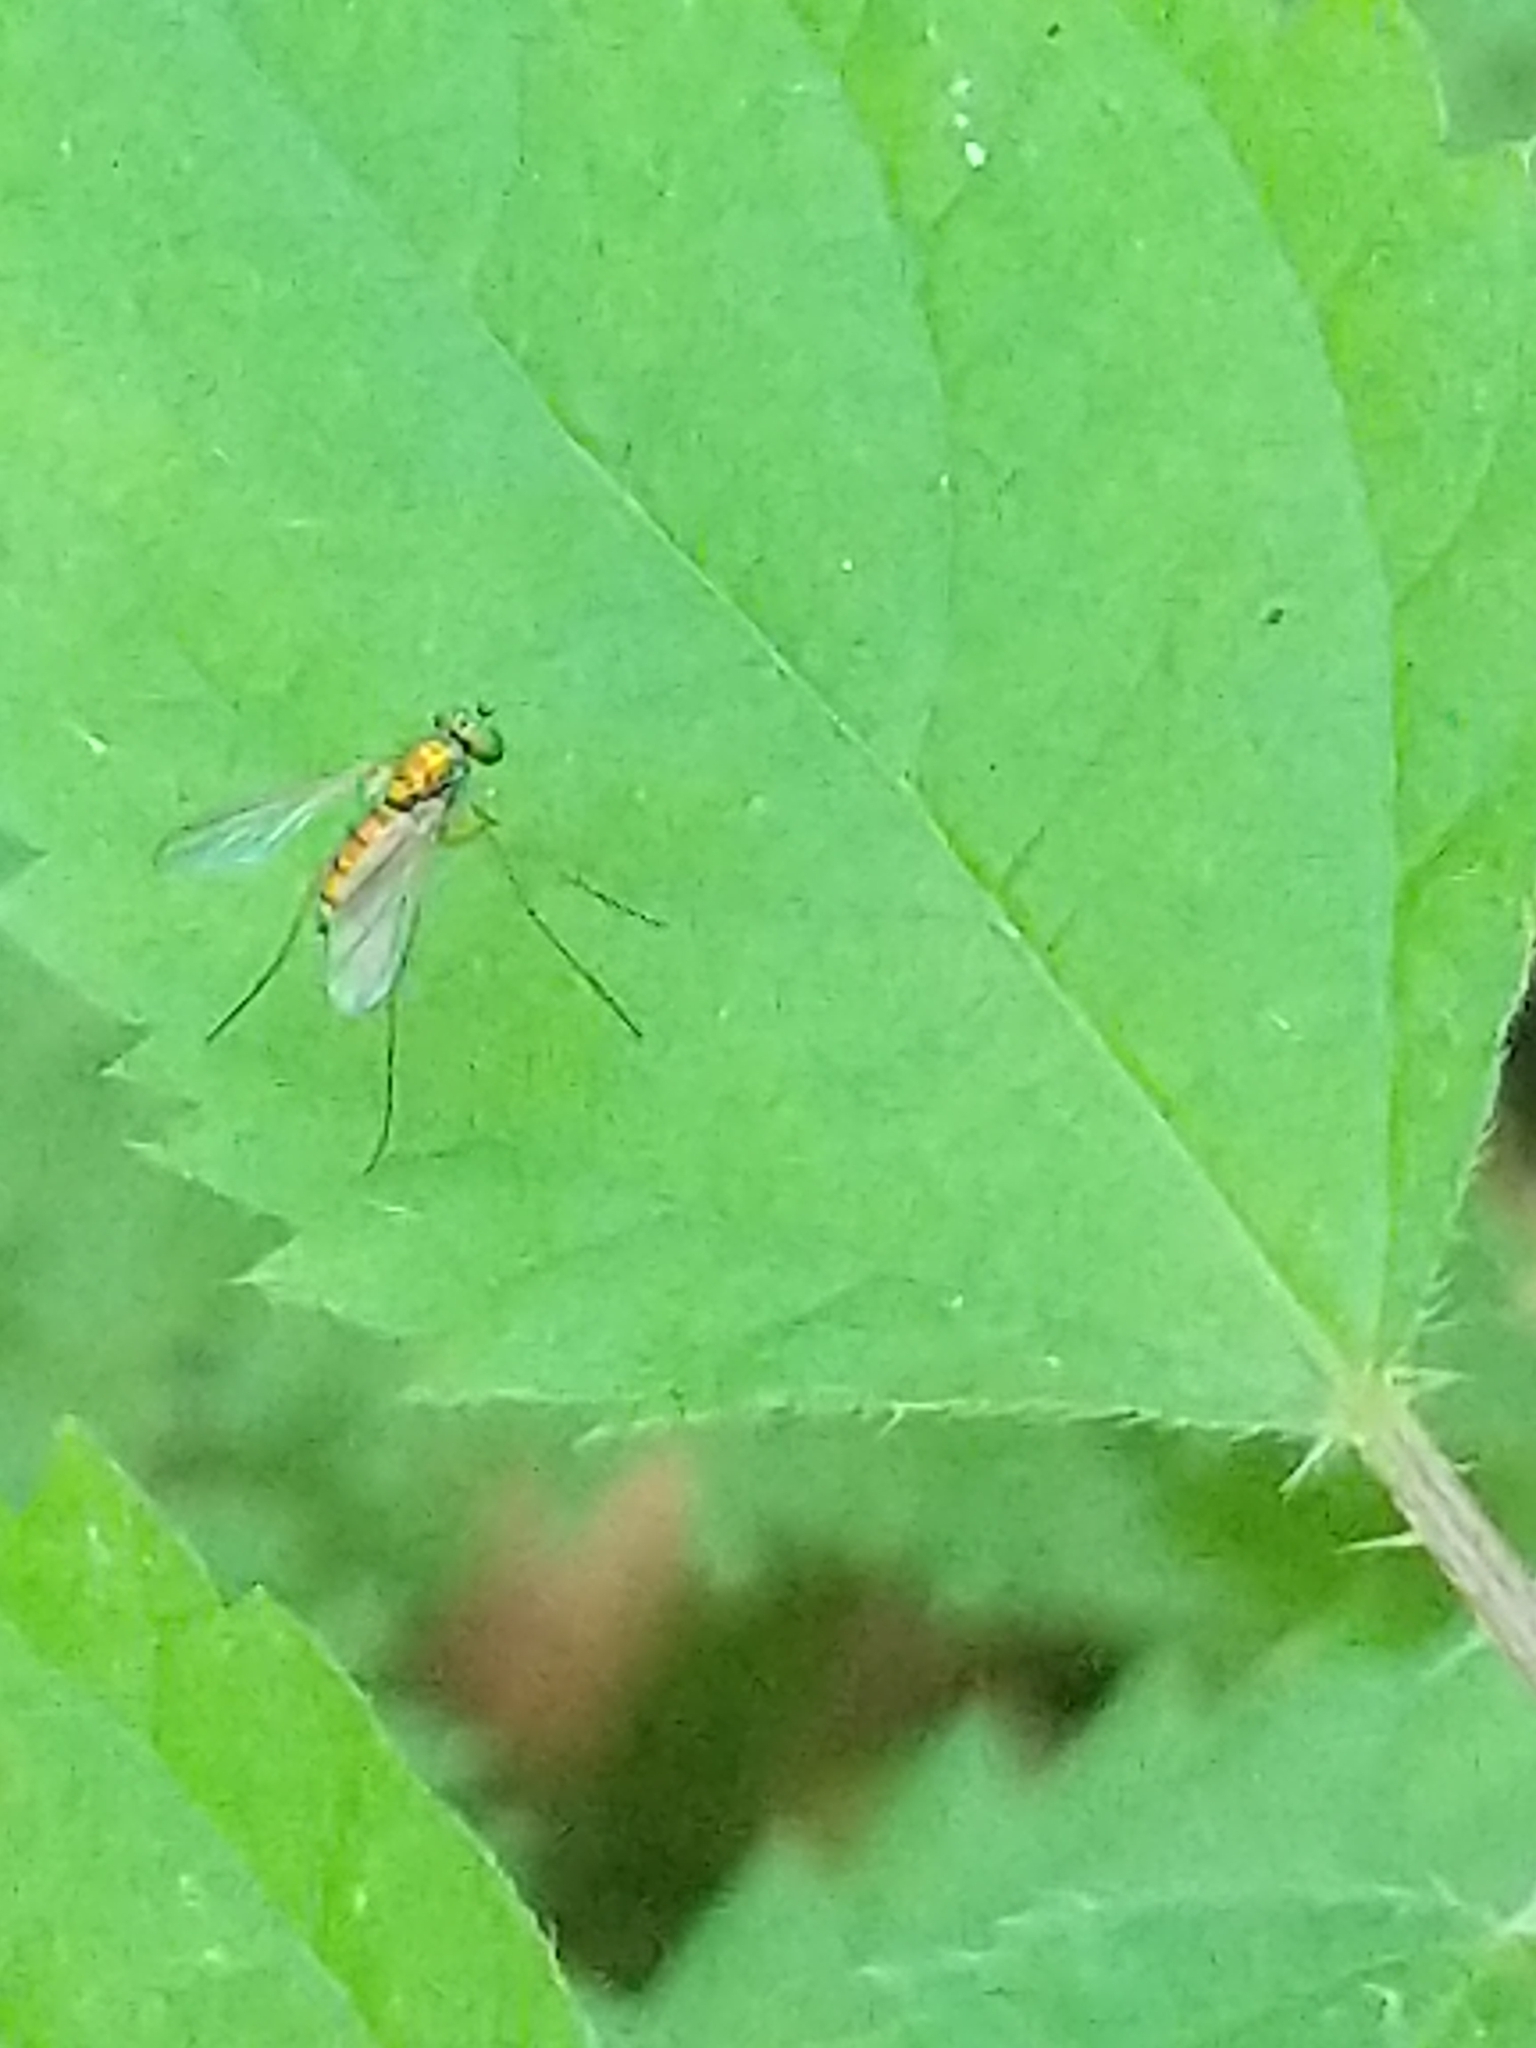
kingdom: Animalia
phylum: Arthropoda
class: Insecta
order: Diptera
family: Dolichopodidae
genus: Amblypsilopus
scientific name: Amblypsilopus scintillans
